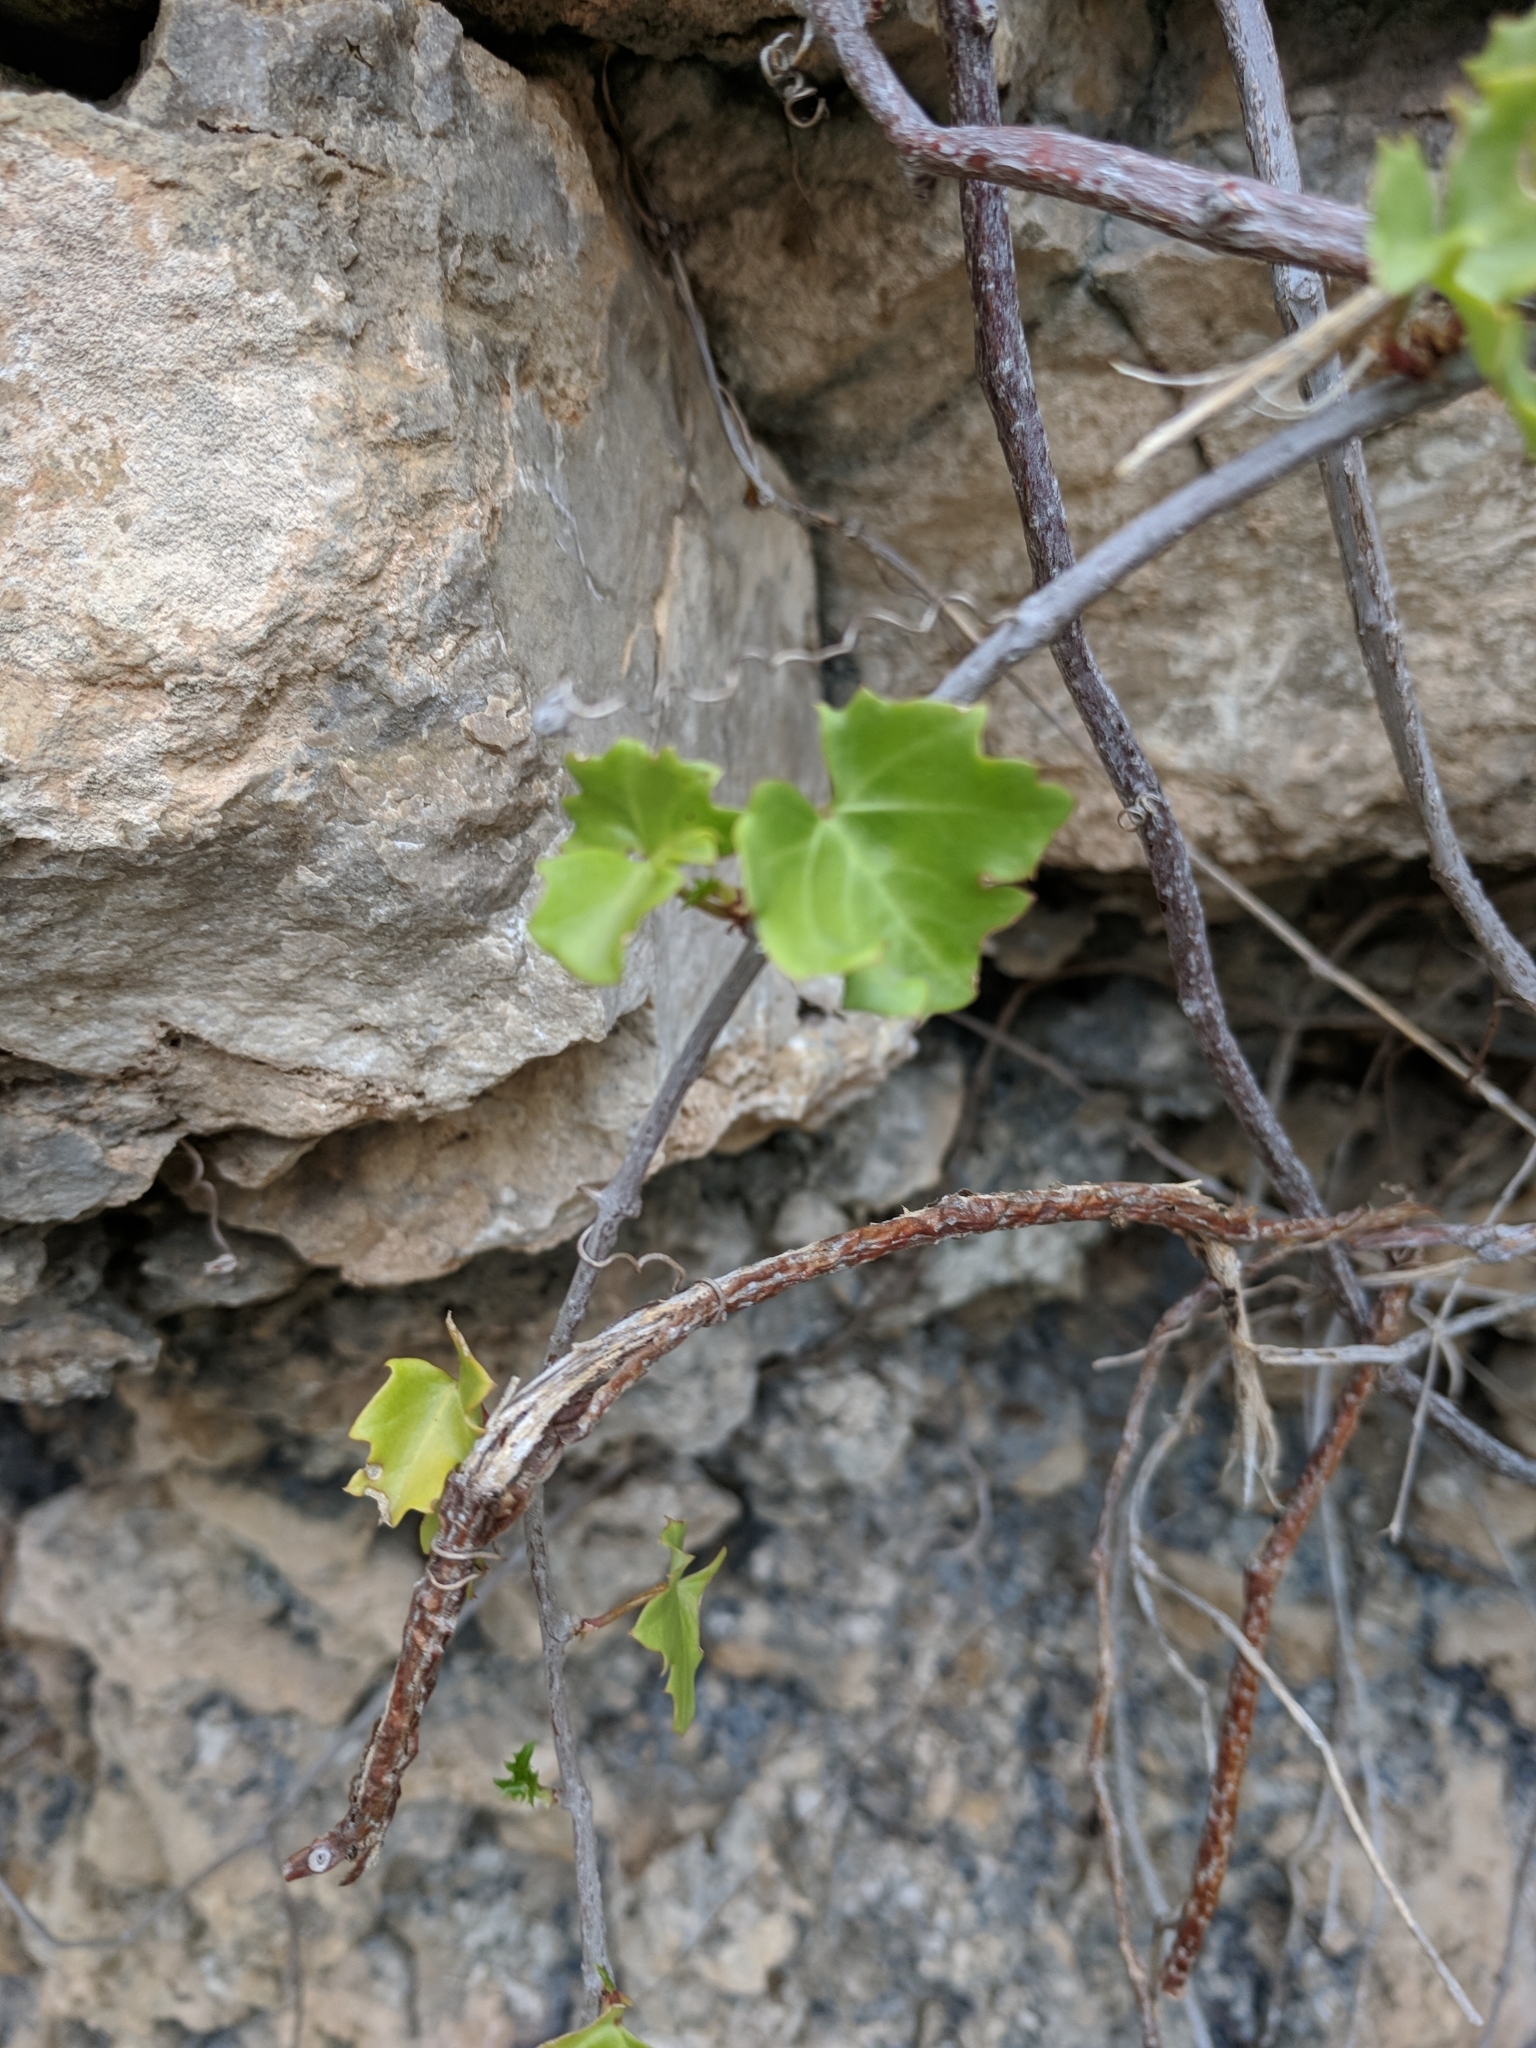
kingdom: Plantae
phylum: Tracheophyta
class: Magnoliopsida
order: Vitales
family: Vitaceae
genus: Cissus
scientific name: Cissus trifoliata
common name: Vine-sorrel
